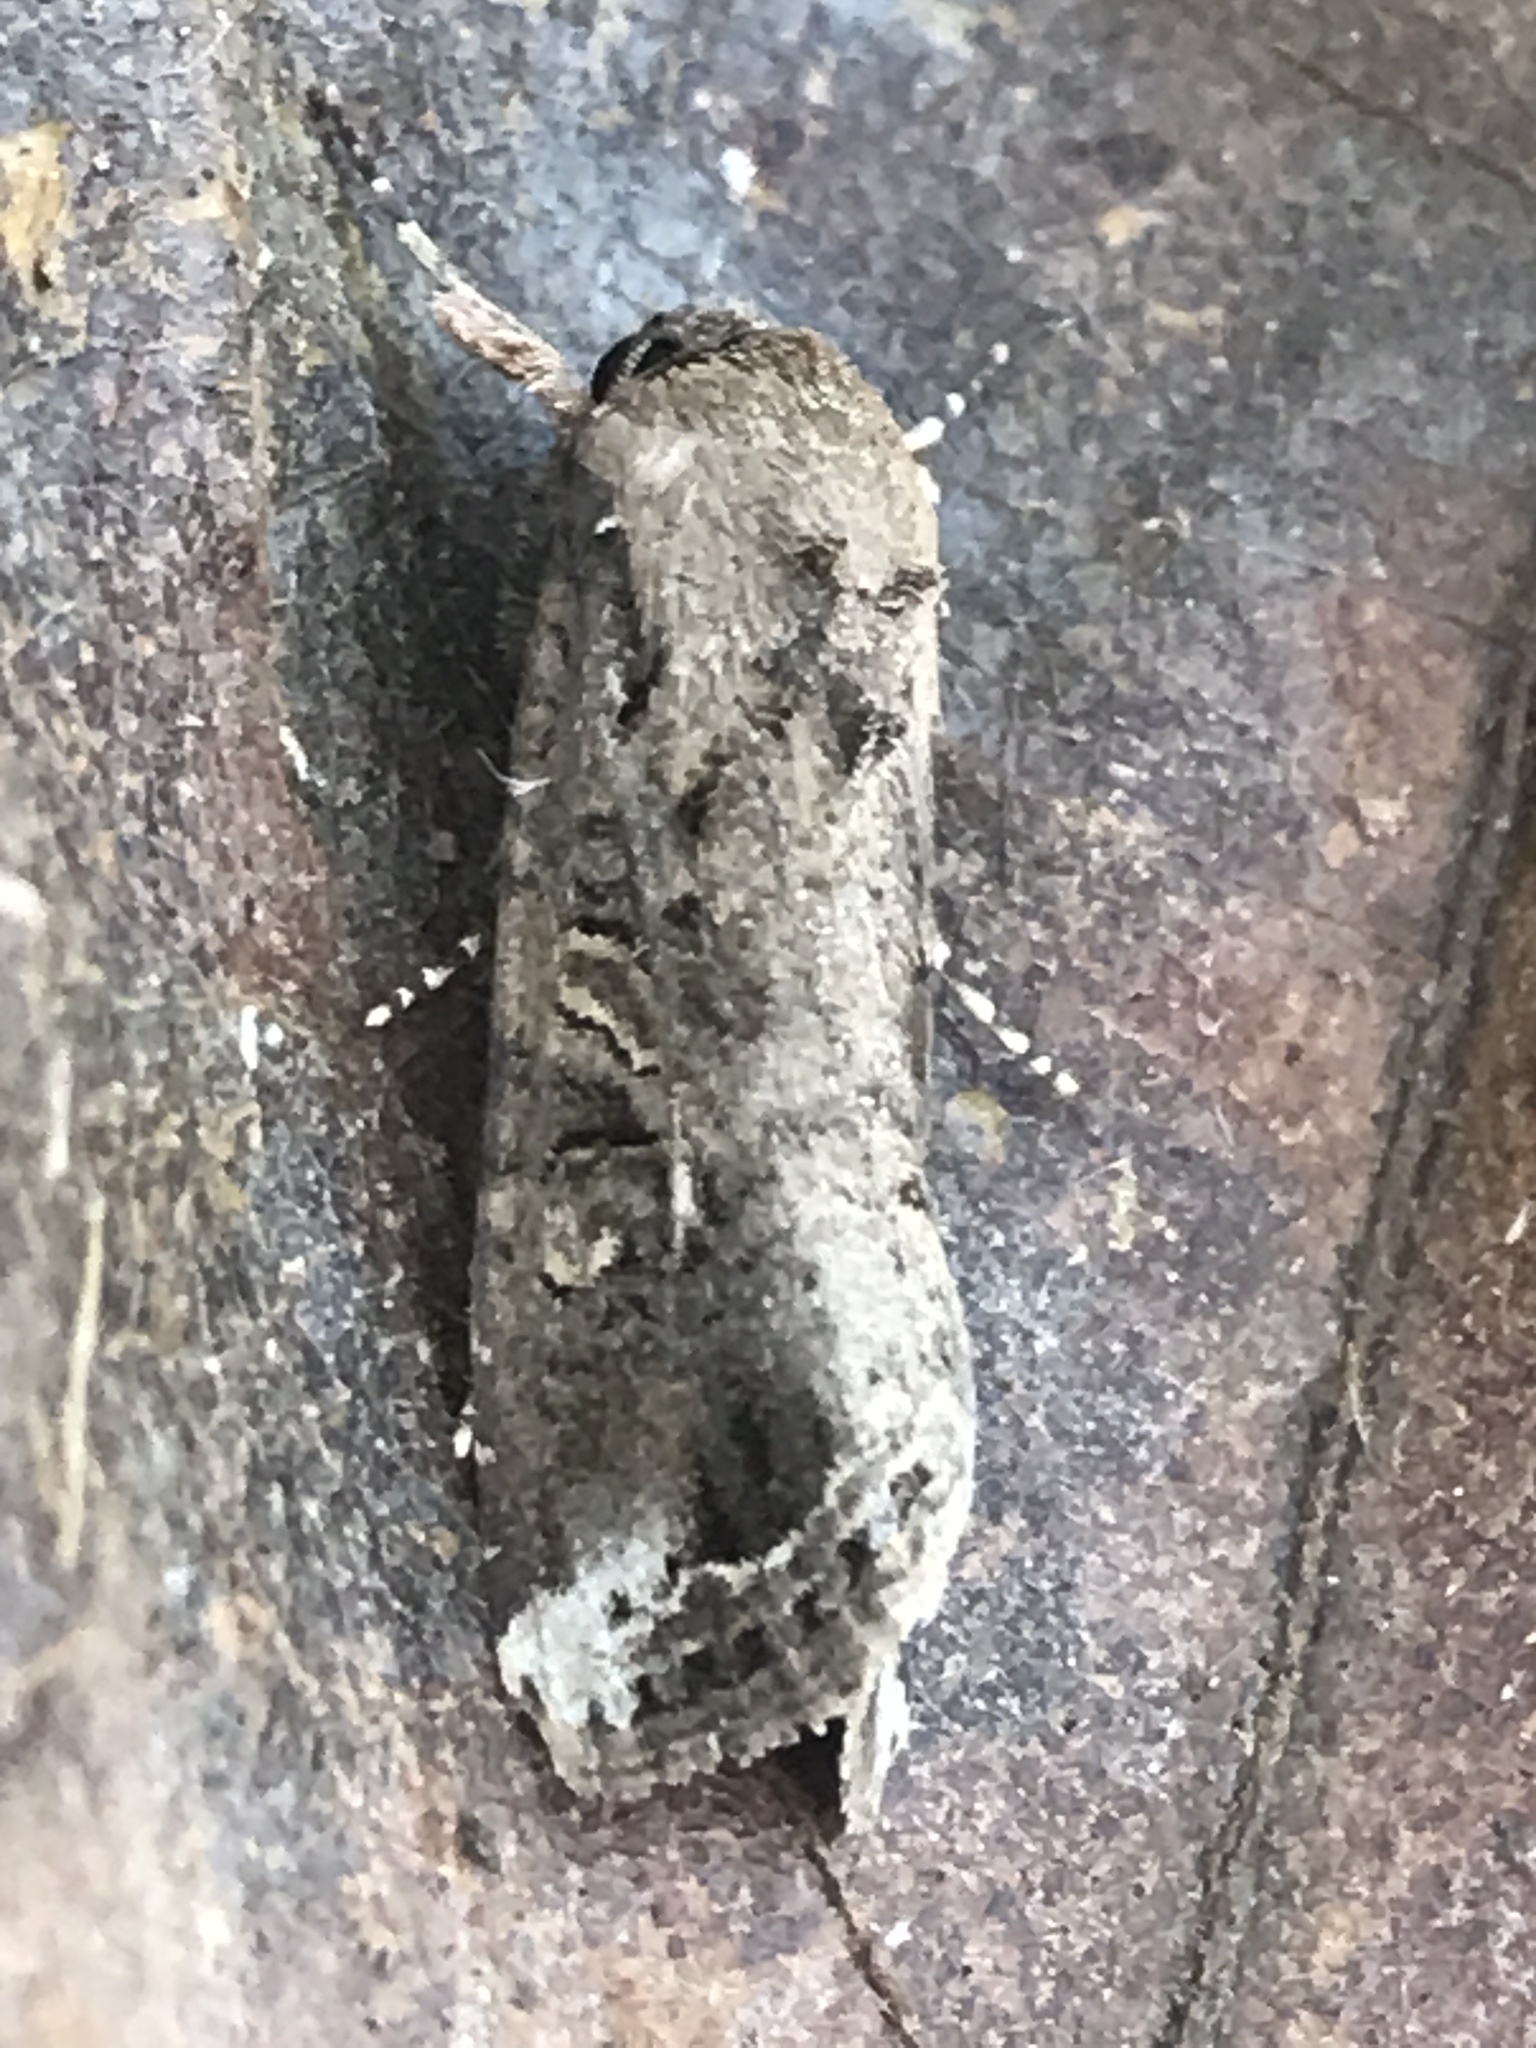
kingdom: Animalia
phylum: Arthropoda
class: Insecta
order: Lepidoptera
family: Noctuidae
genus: Spodoptera
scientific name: Spodoptera frugiperda
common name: Fall armyworm
